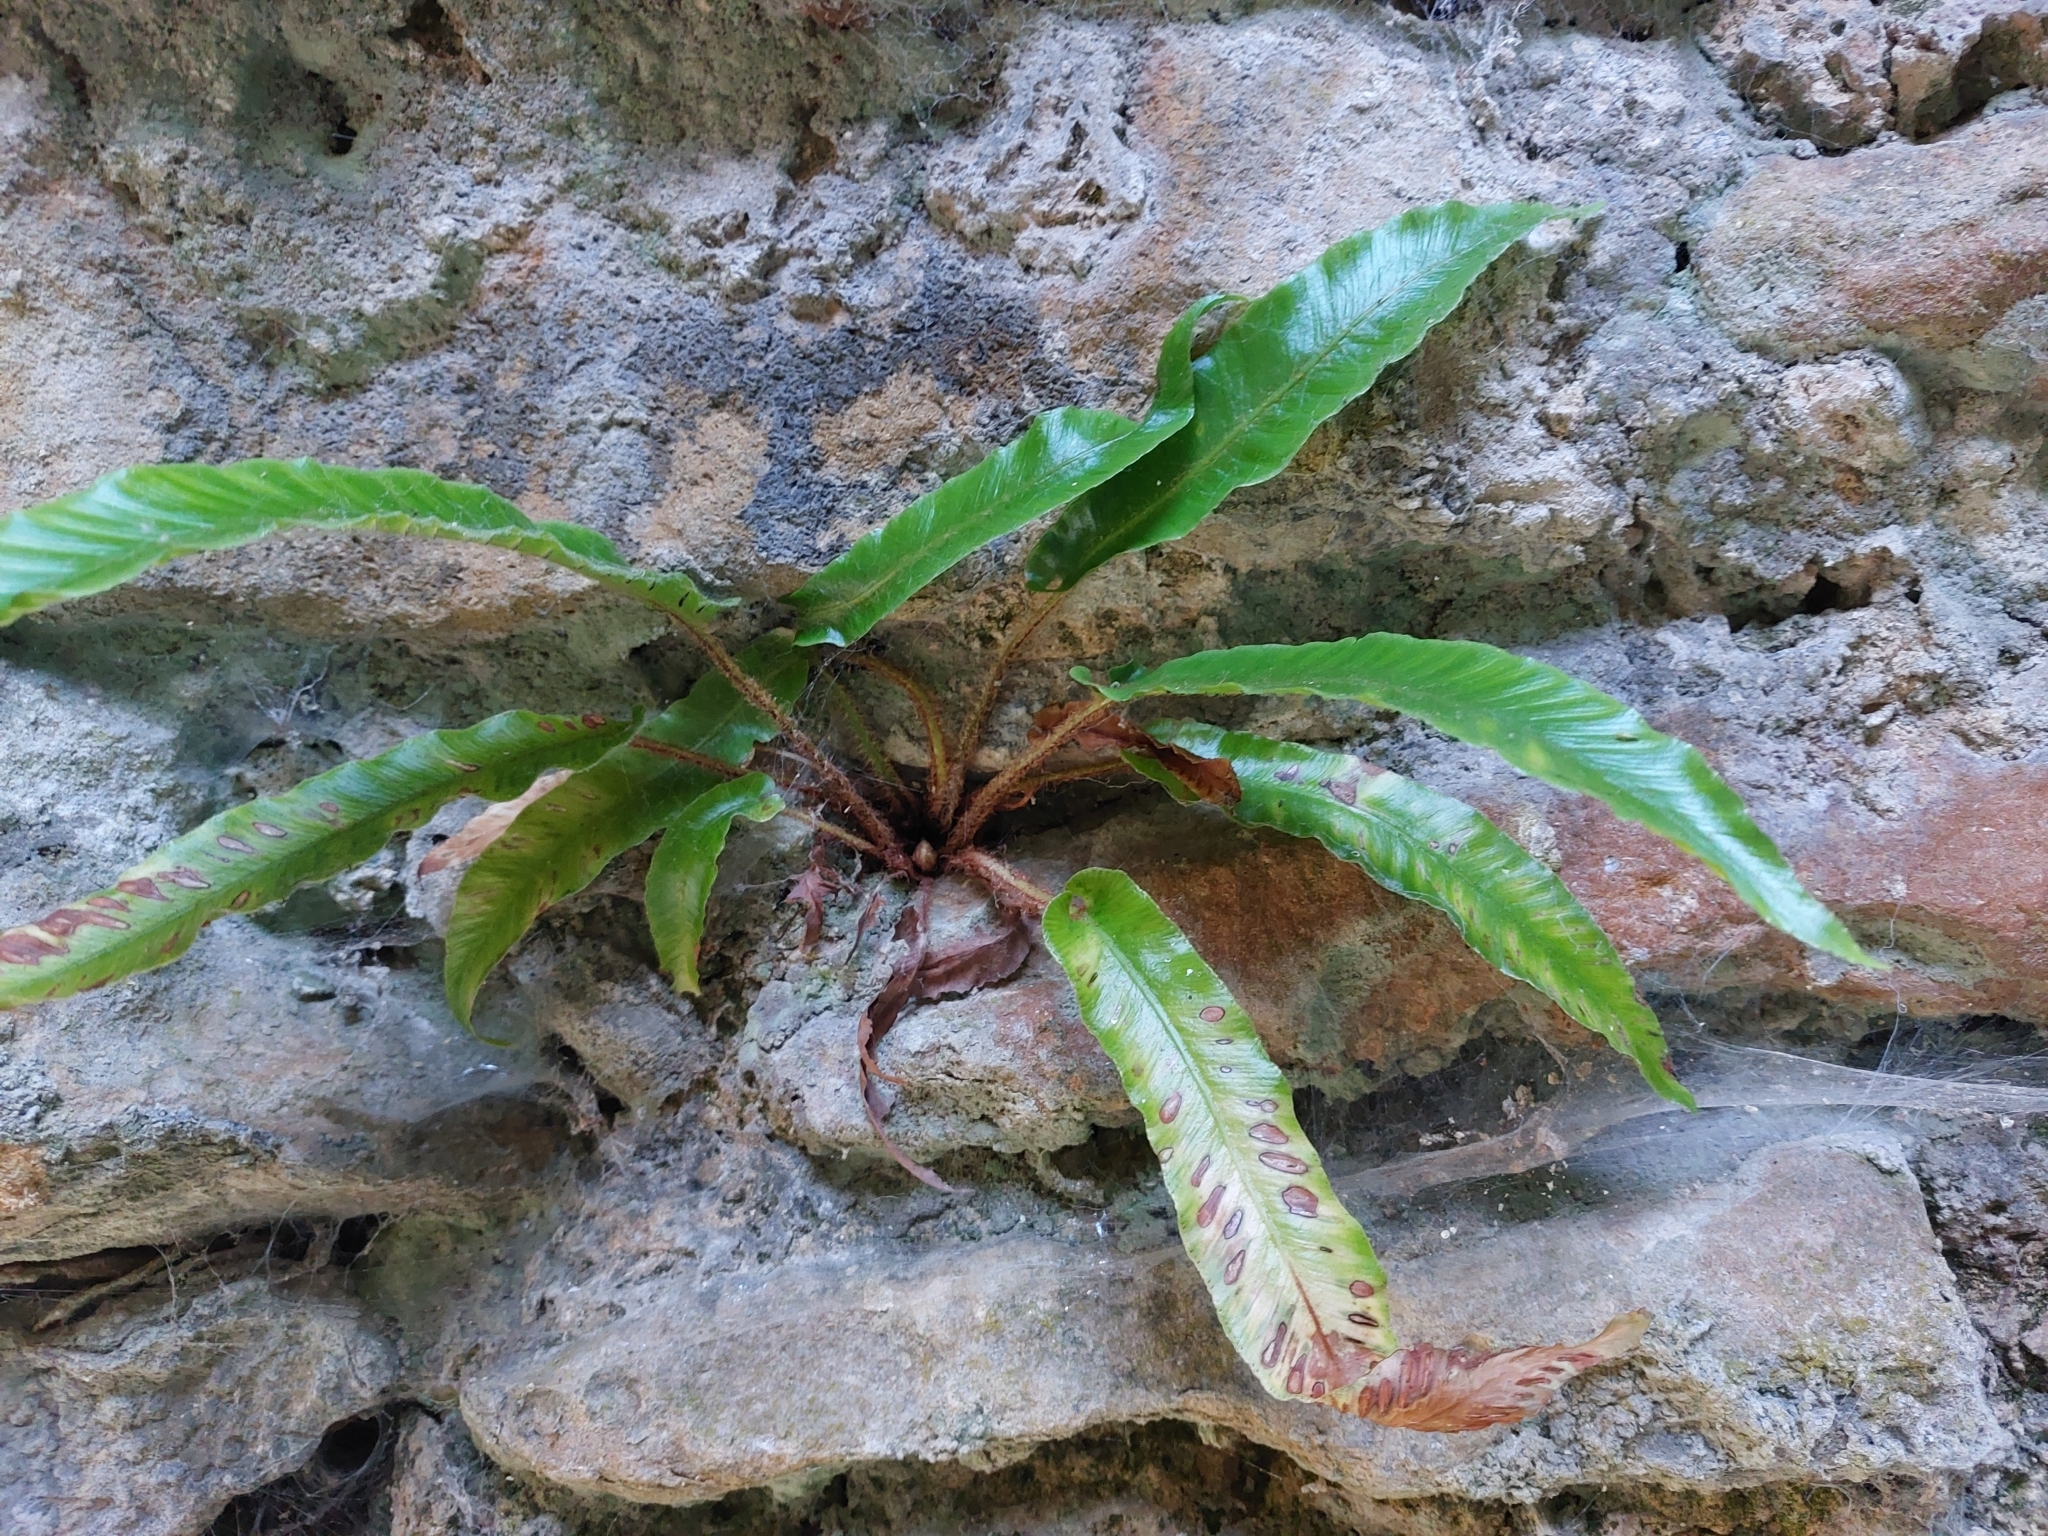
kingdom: Plantae
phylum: Tracheophyta
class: Polypodiopsida
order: Polypodiales
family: Aspleniaceae
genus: Asplenium
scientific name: Asplenium scolopendrium
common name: Hart's-tongue fern
